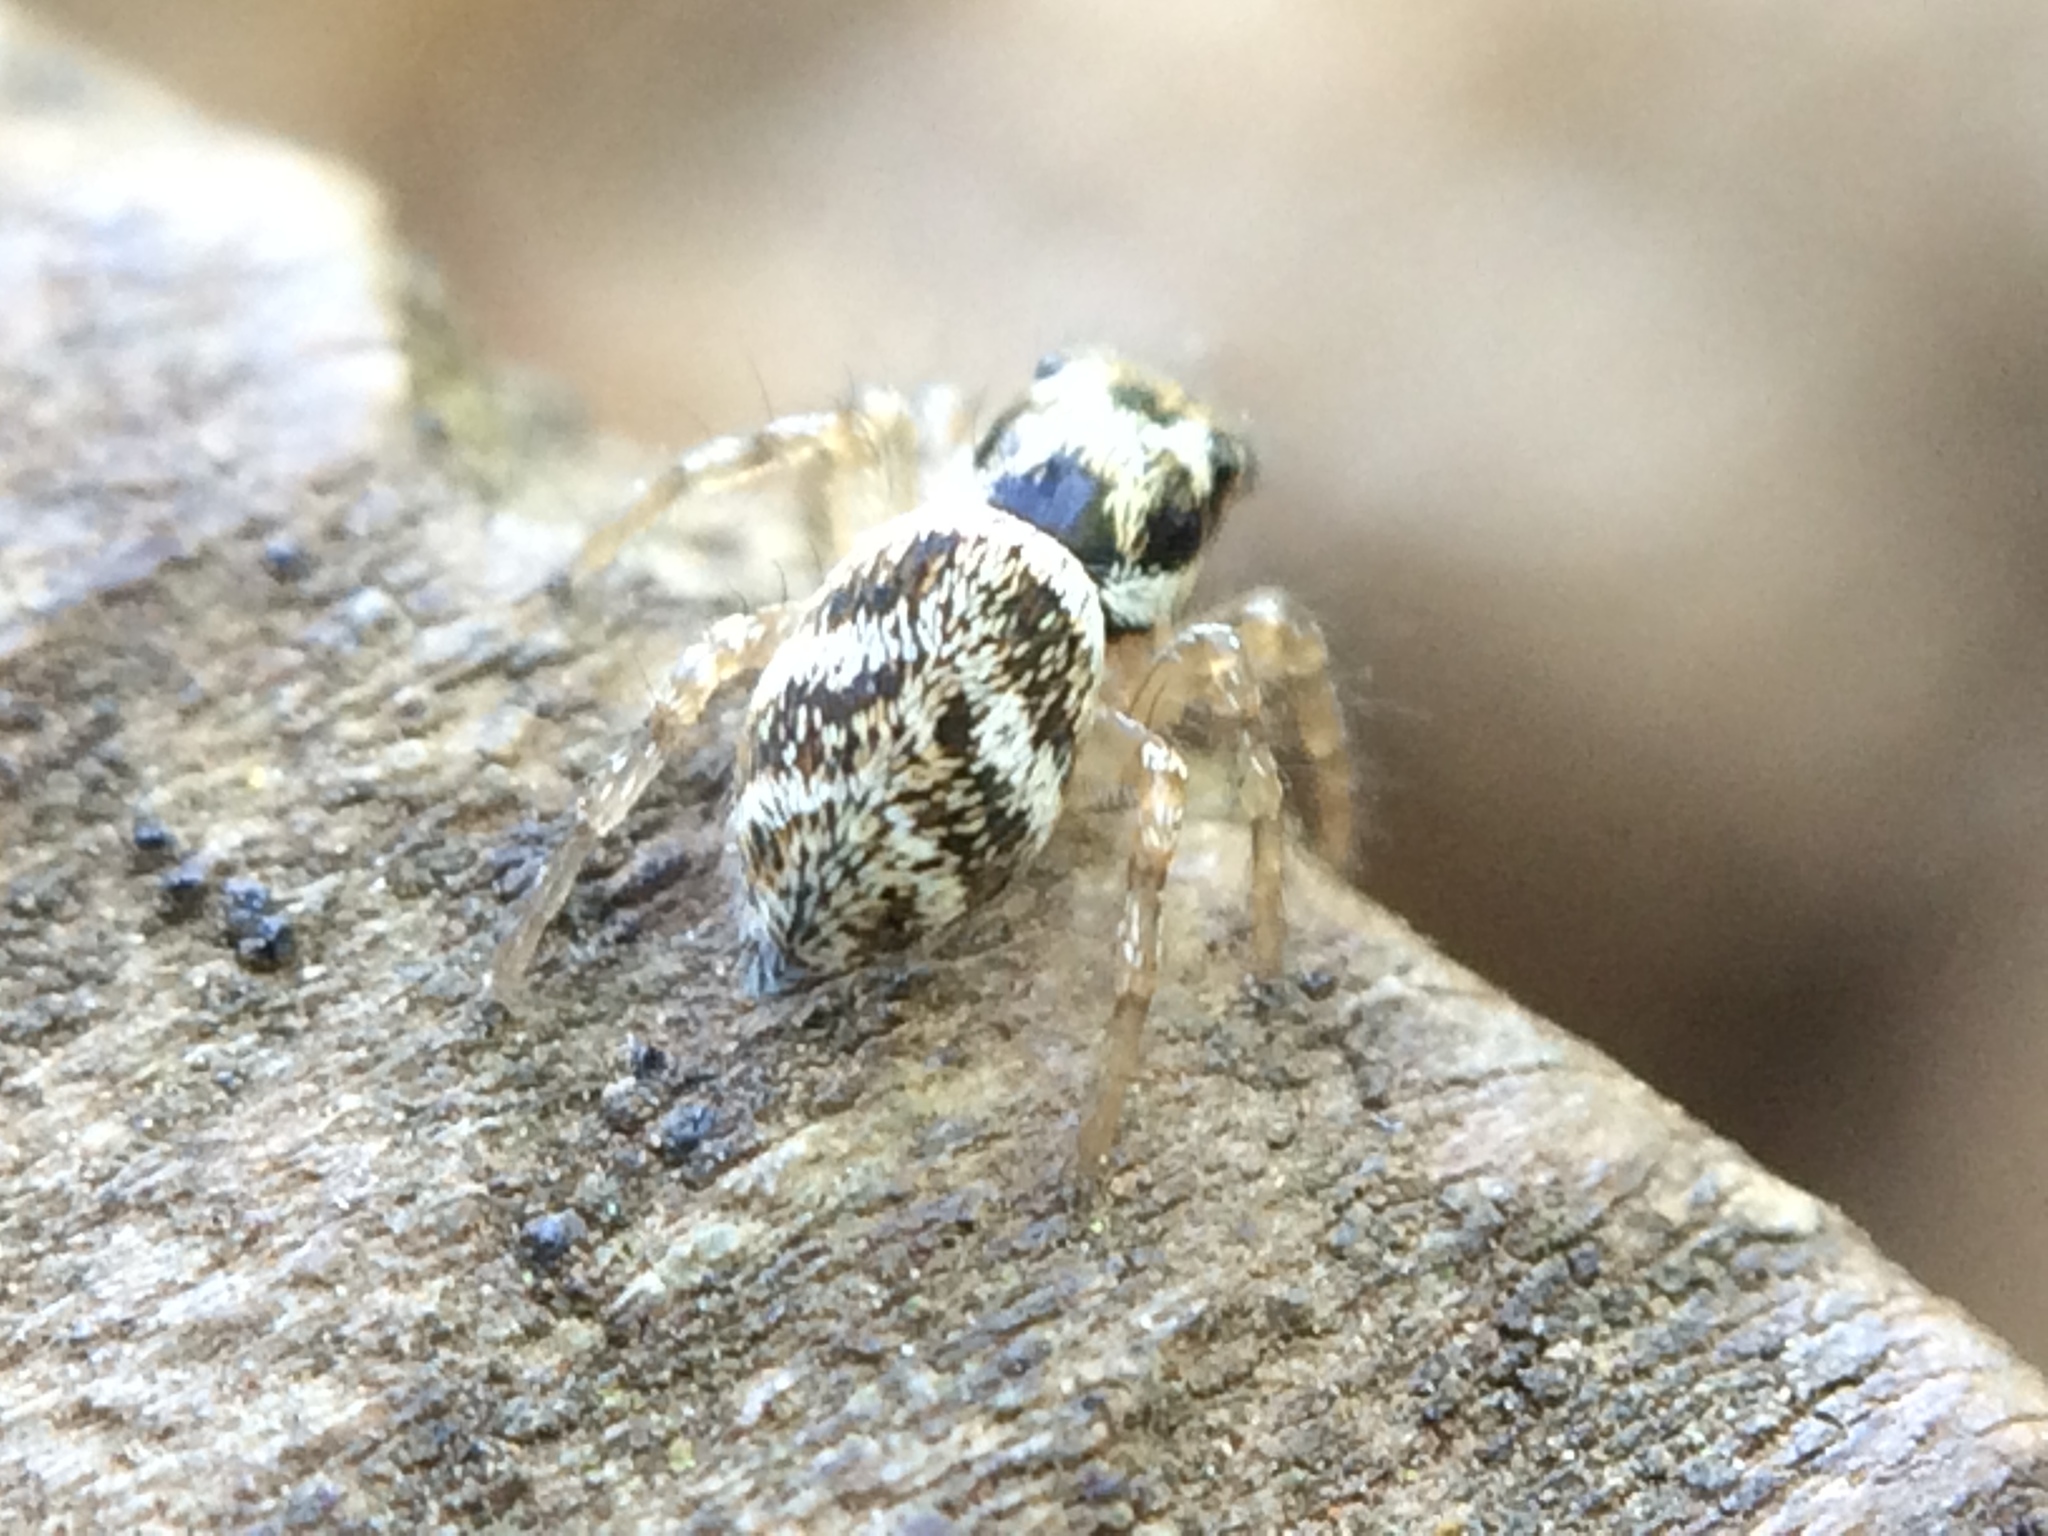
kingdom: Animalia
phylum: Arthropoda
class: Arachnida
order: Araneae
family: Salticidae
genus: Salticus
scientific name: Salticus scenicus
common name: Zebra jumper
